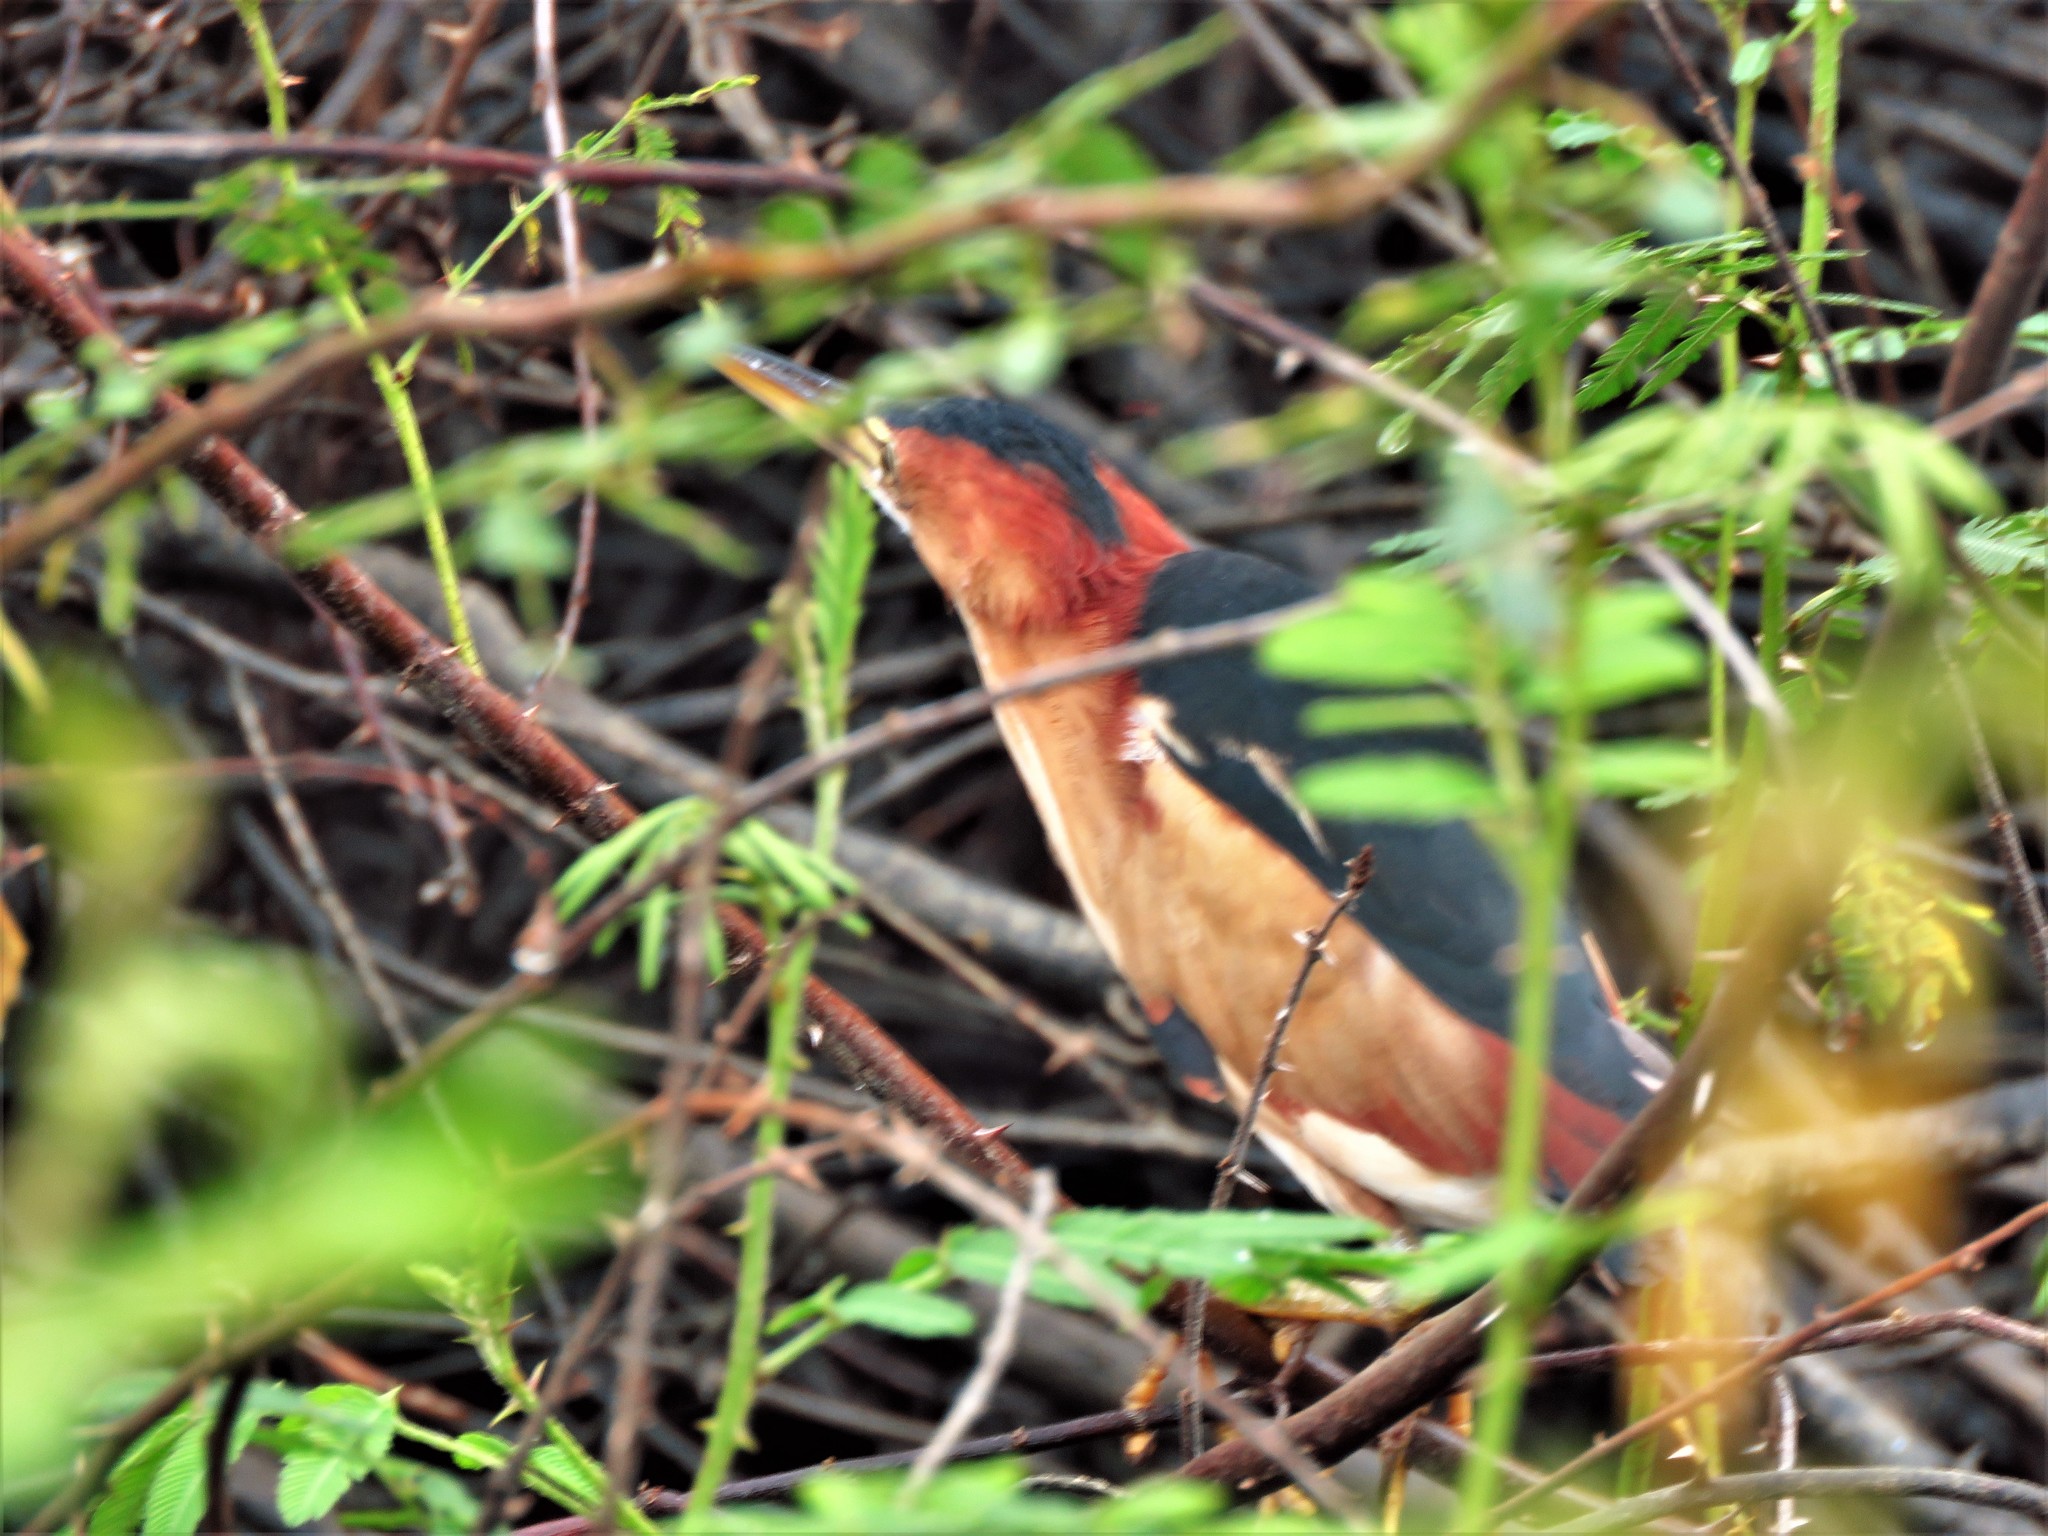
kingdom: Animalia
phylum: Chordata
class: Aves
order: Pelecaniformes
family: Ardeidae
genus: Ixobrychus
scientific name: Ixobrychus exilis
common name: Least bittern
